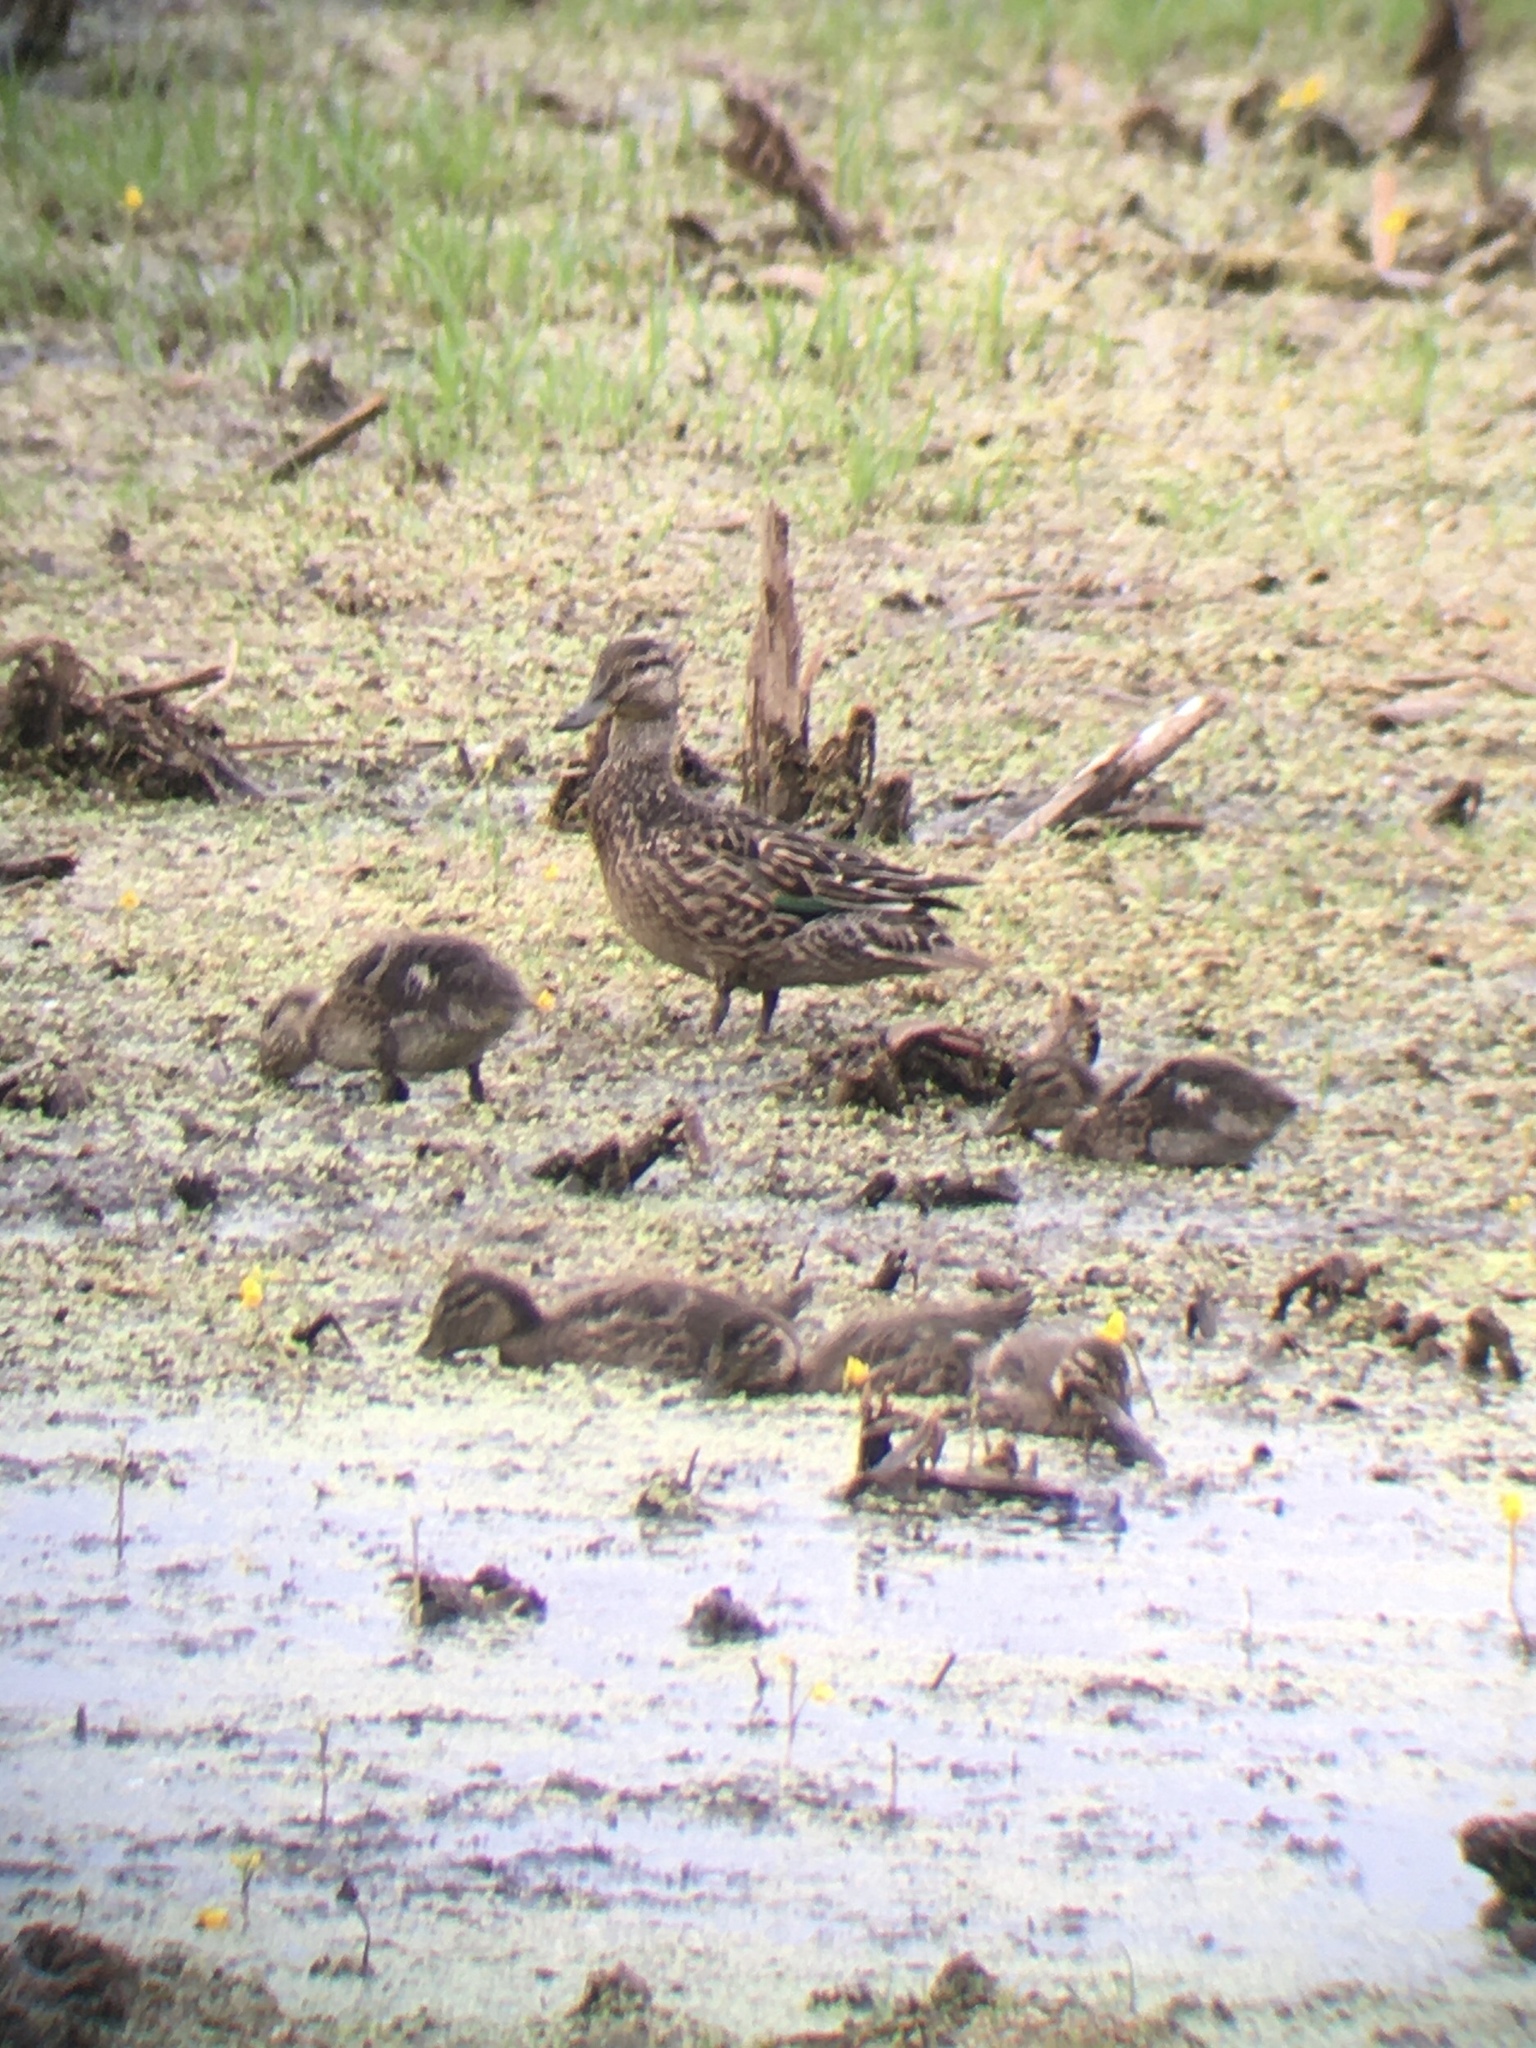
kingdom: Animalia
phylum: Chordata
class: Aves
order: Anseriformes
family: Anatidae
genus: Anas
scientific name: Anas crecca
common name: Eurasian teal
